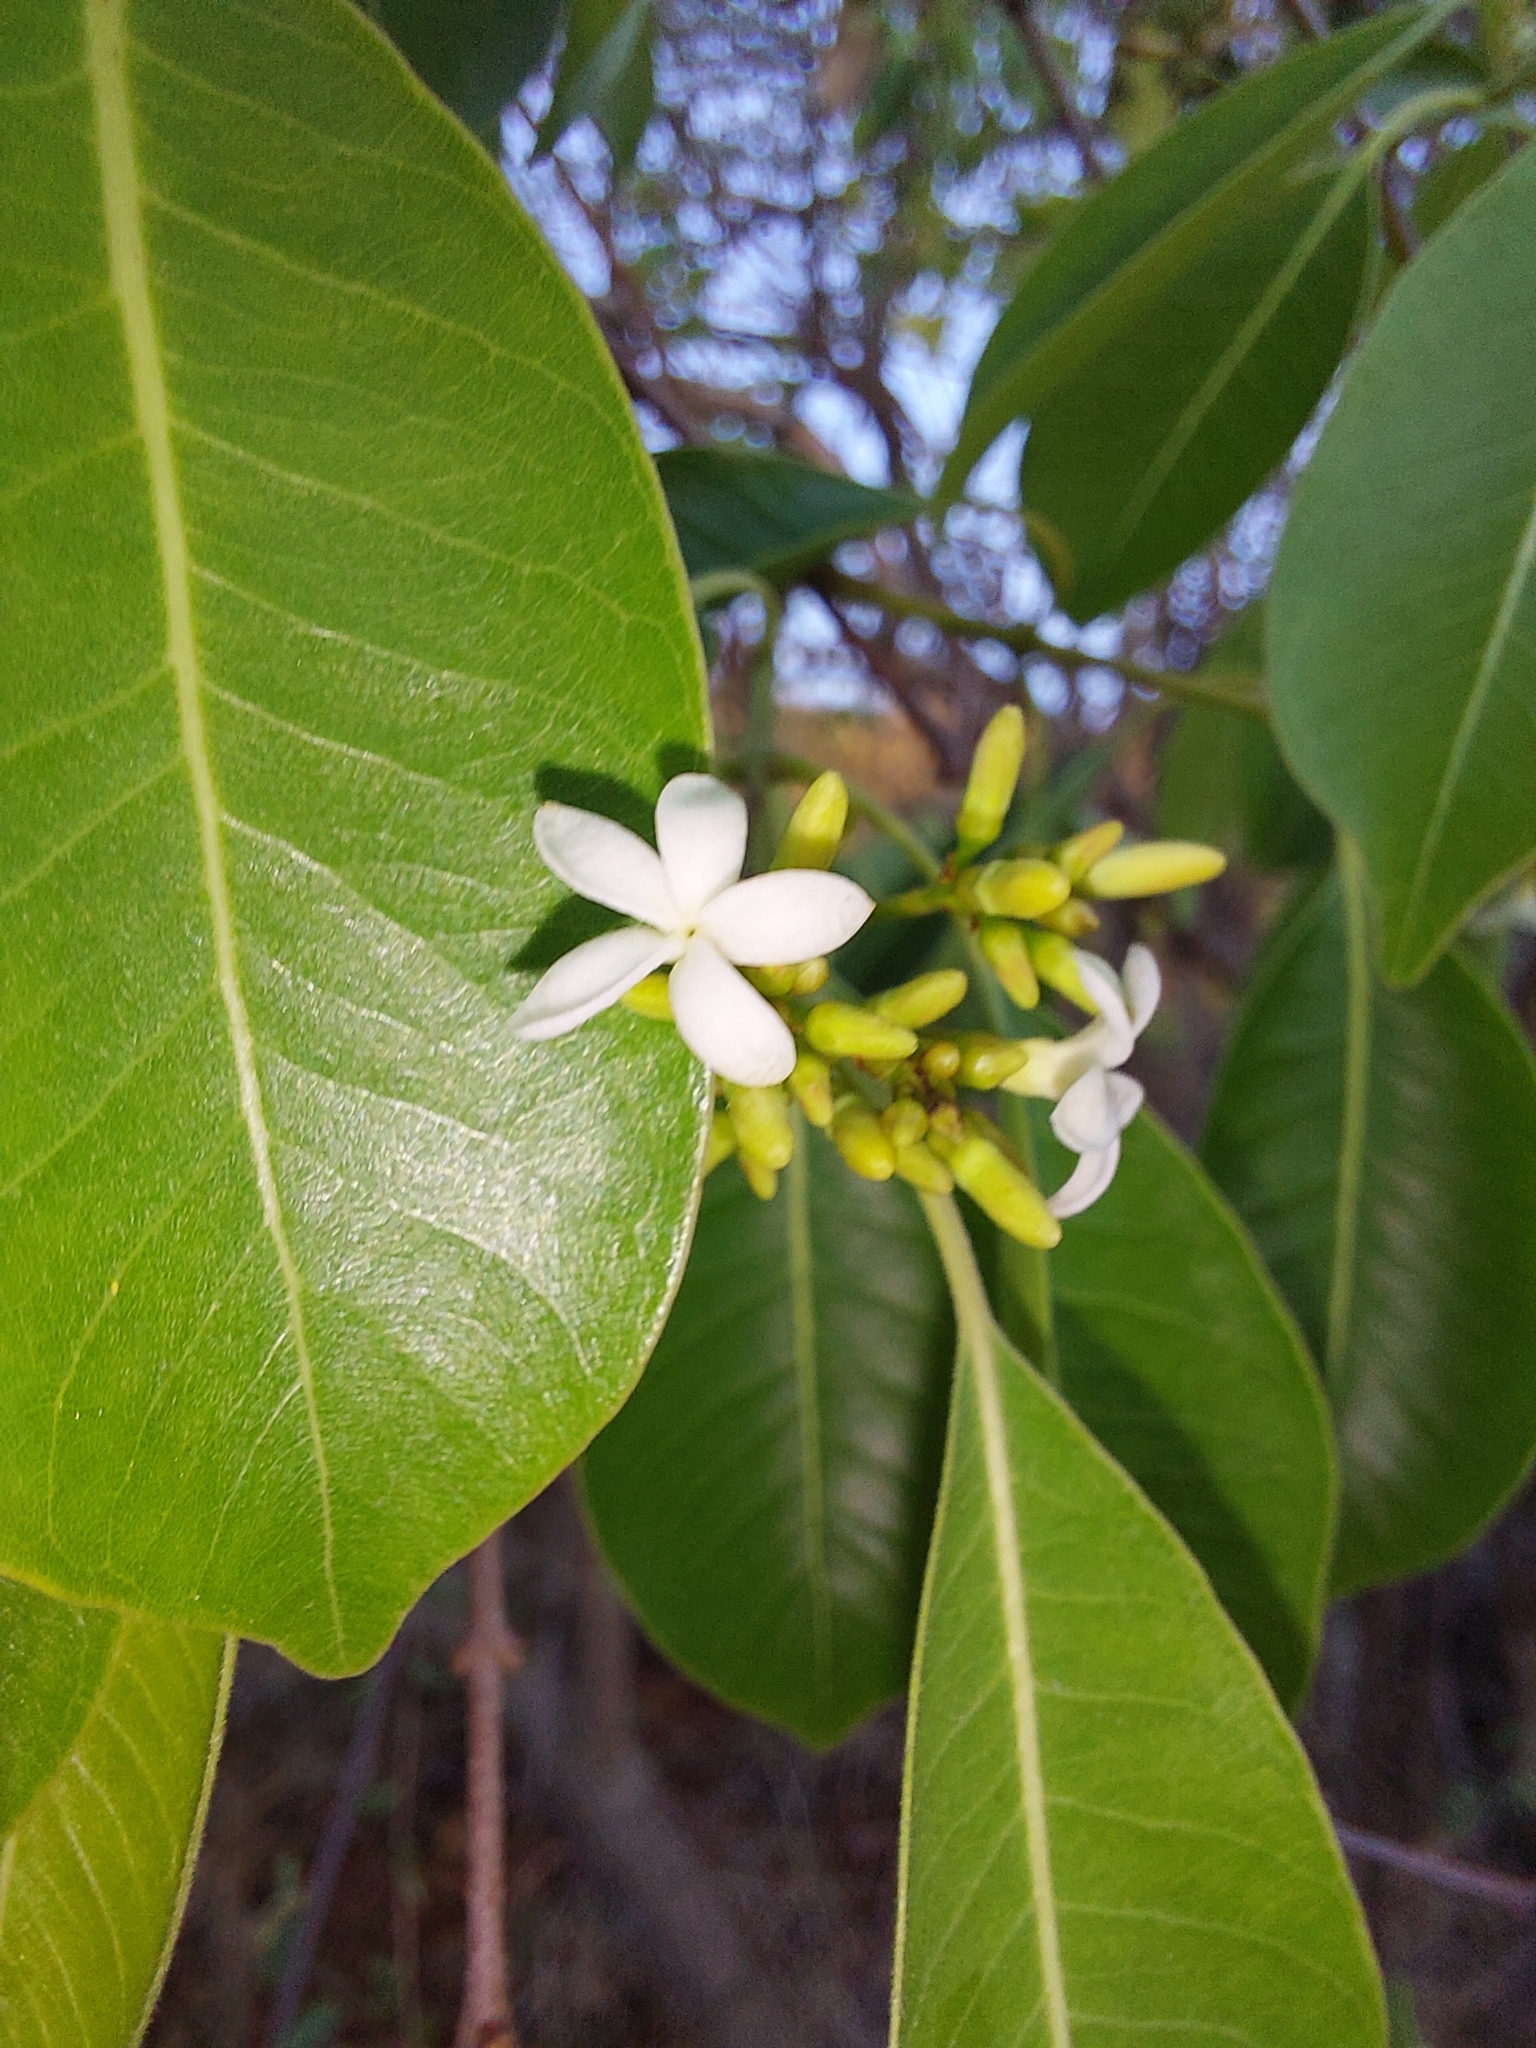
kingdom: Plantae
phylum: Tracheophyta
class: Magnoliopsida
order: Gentianales
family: Apocynaceae
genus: Diplorhynchus
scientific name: Diplorhynchus condylocarpon
